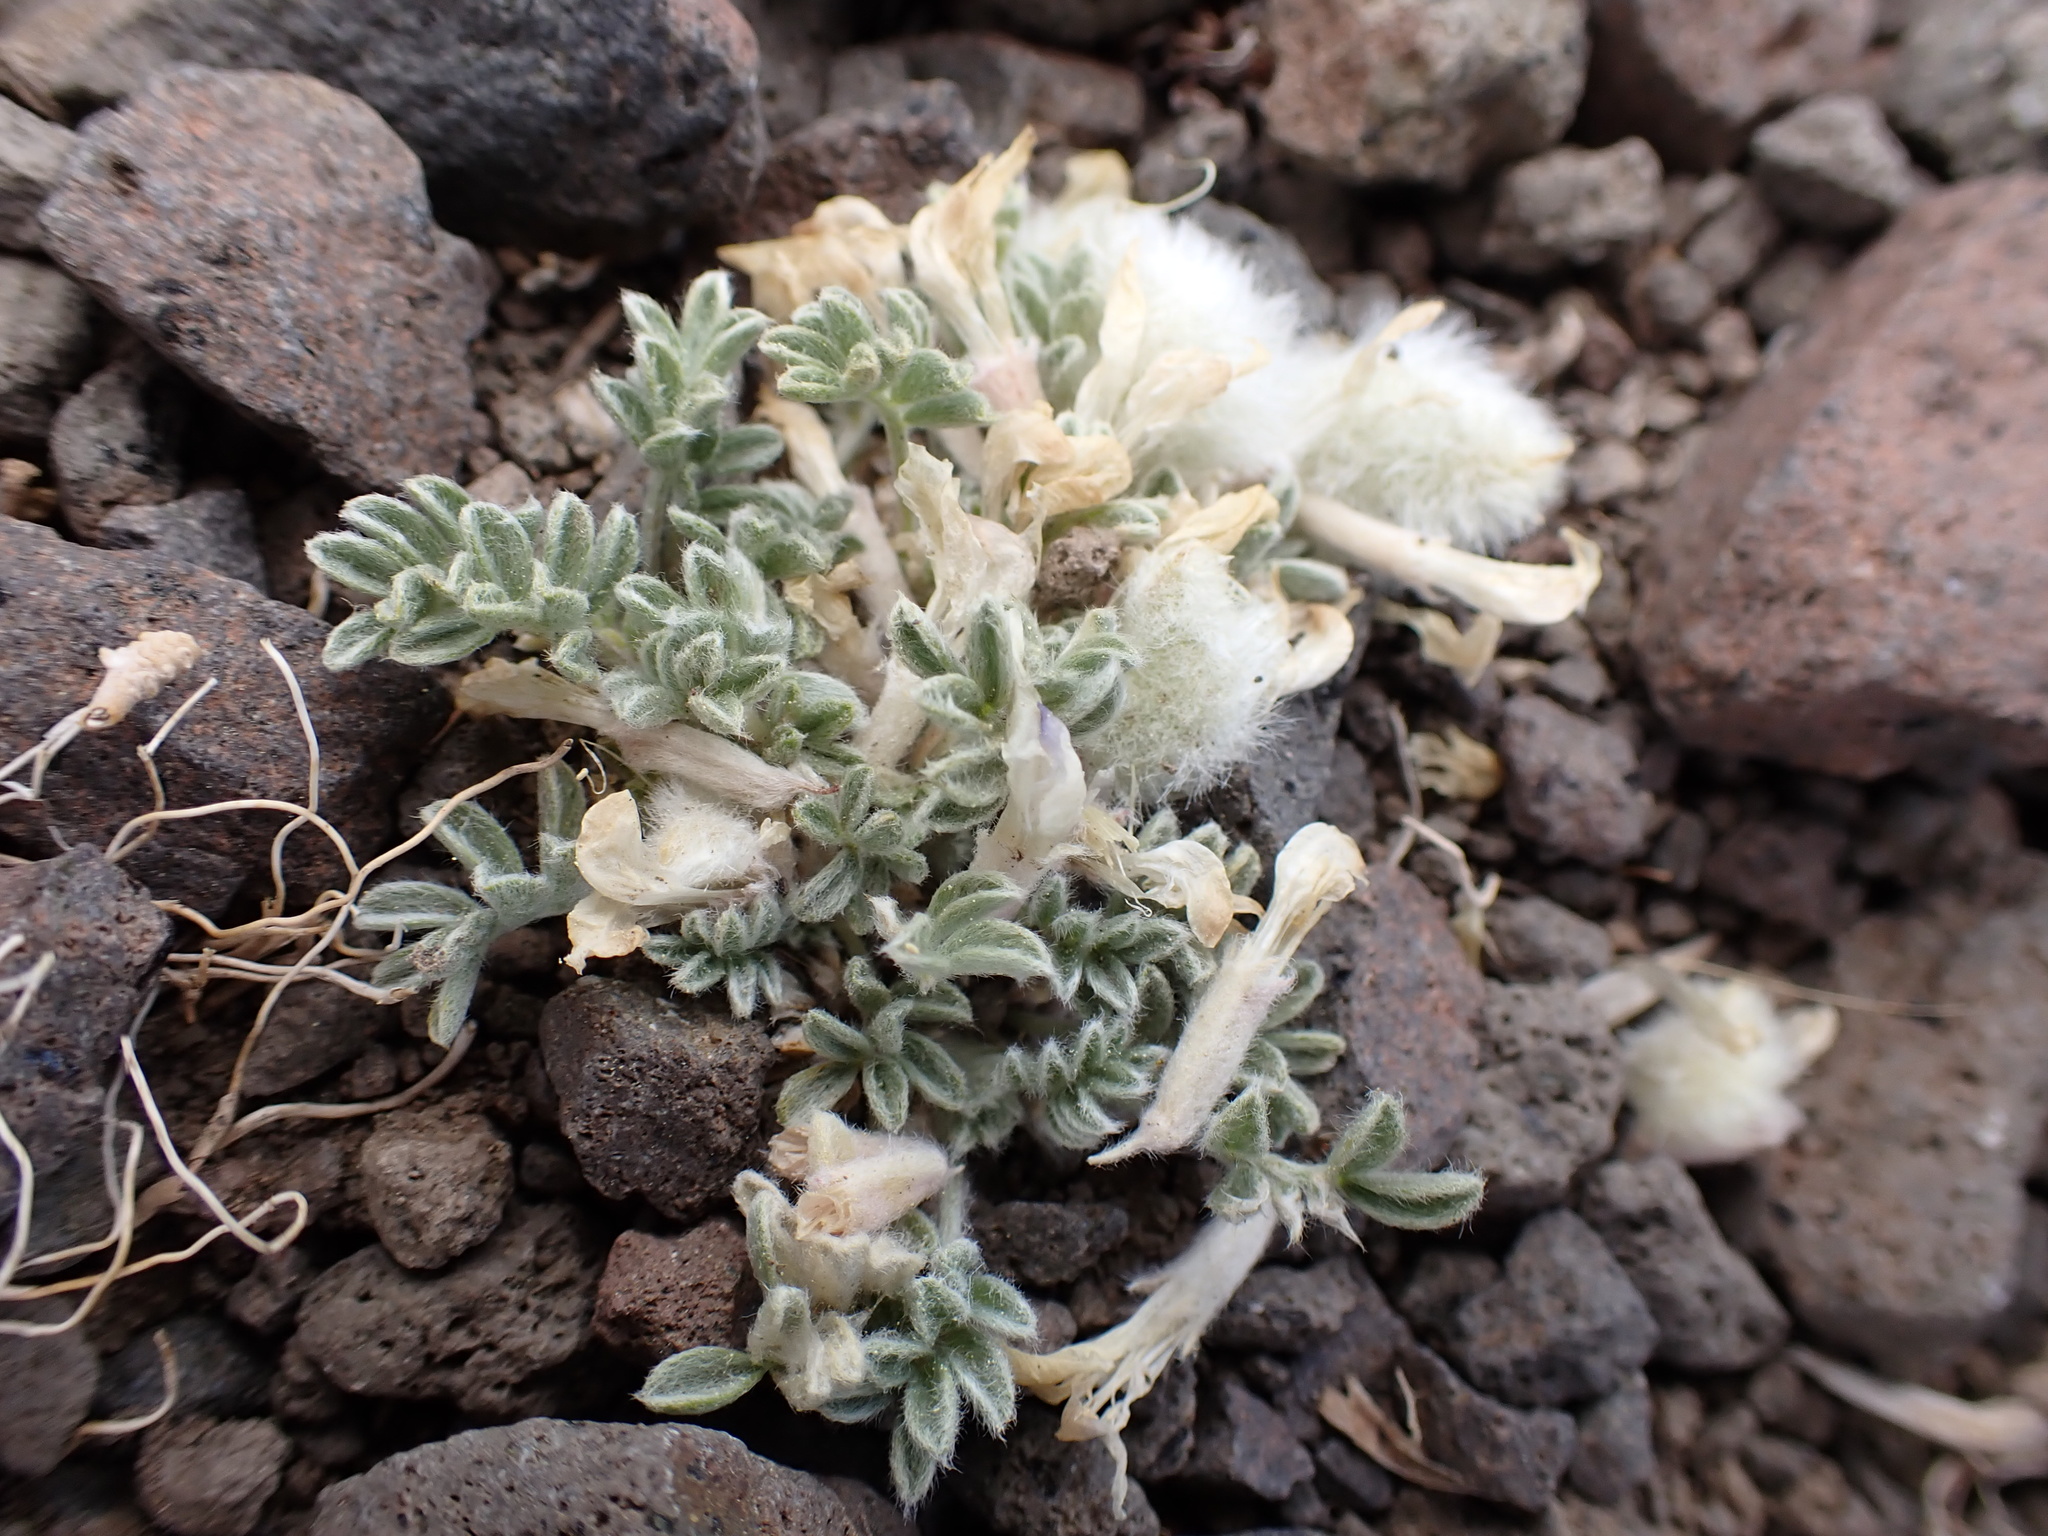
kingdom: Plantae
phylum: Tracheophyta
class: Magnoliopsida
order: Fabales
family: Fabaceae
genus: Astragalus
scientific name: Astragalus purshii
